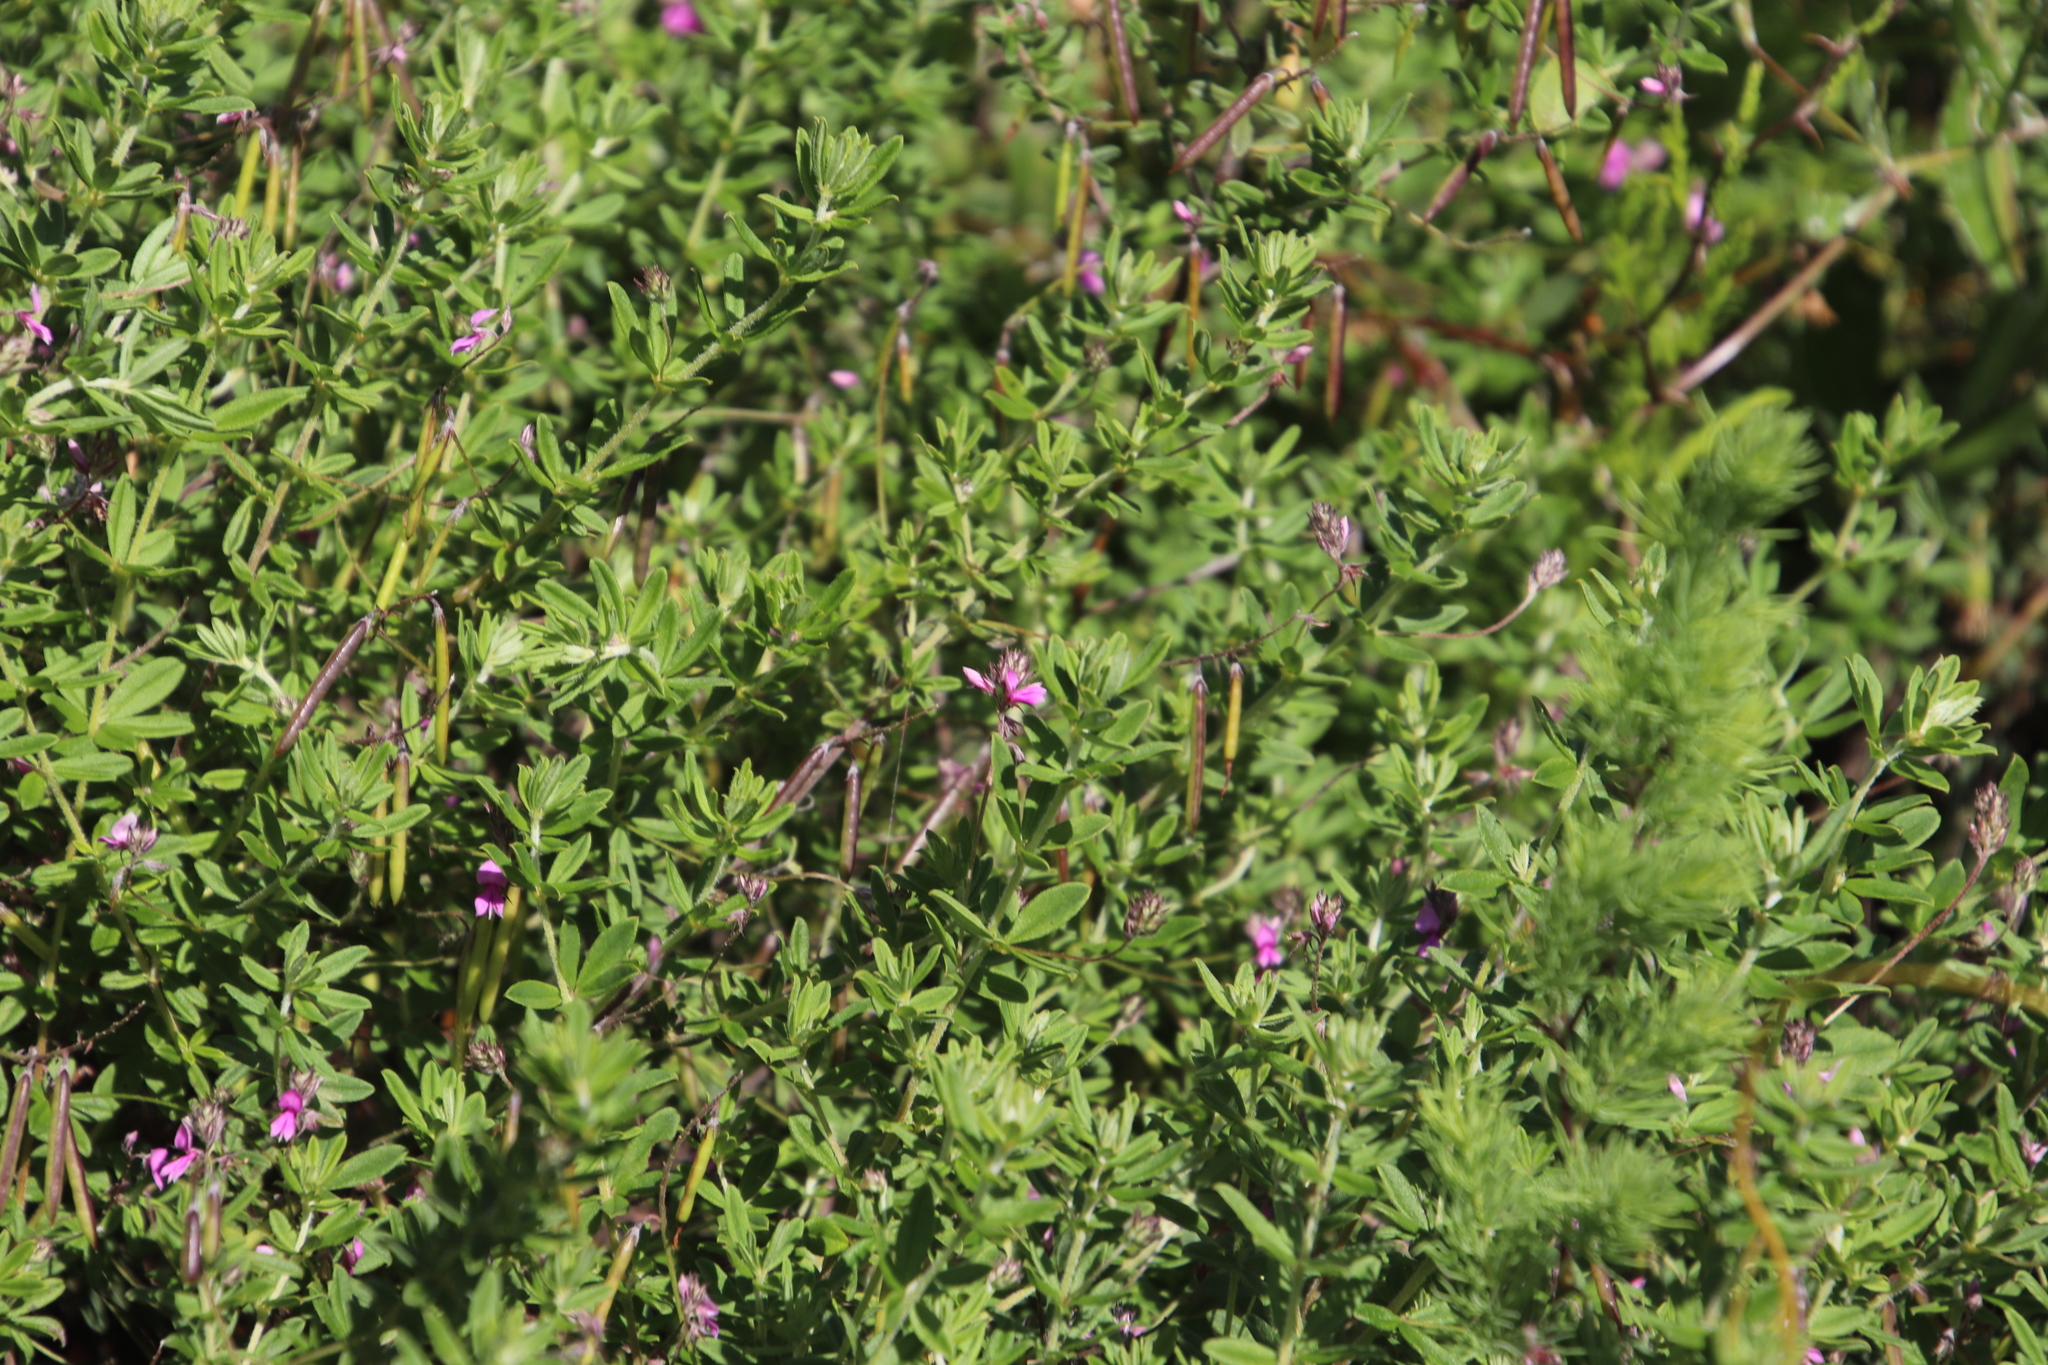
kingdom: Plantae
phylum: Tracheophyta
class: Magnoliopsida
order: Fabales
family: Fabaceae
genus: Indigofera
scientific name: Indigofera filiformis
